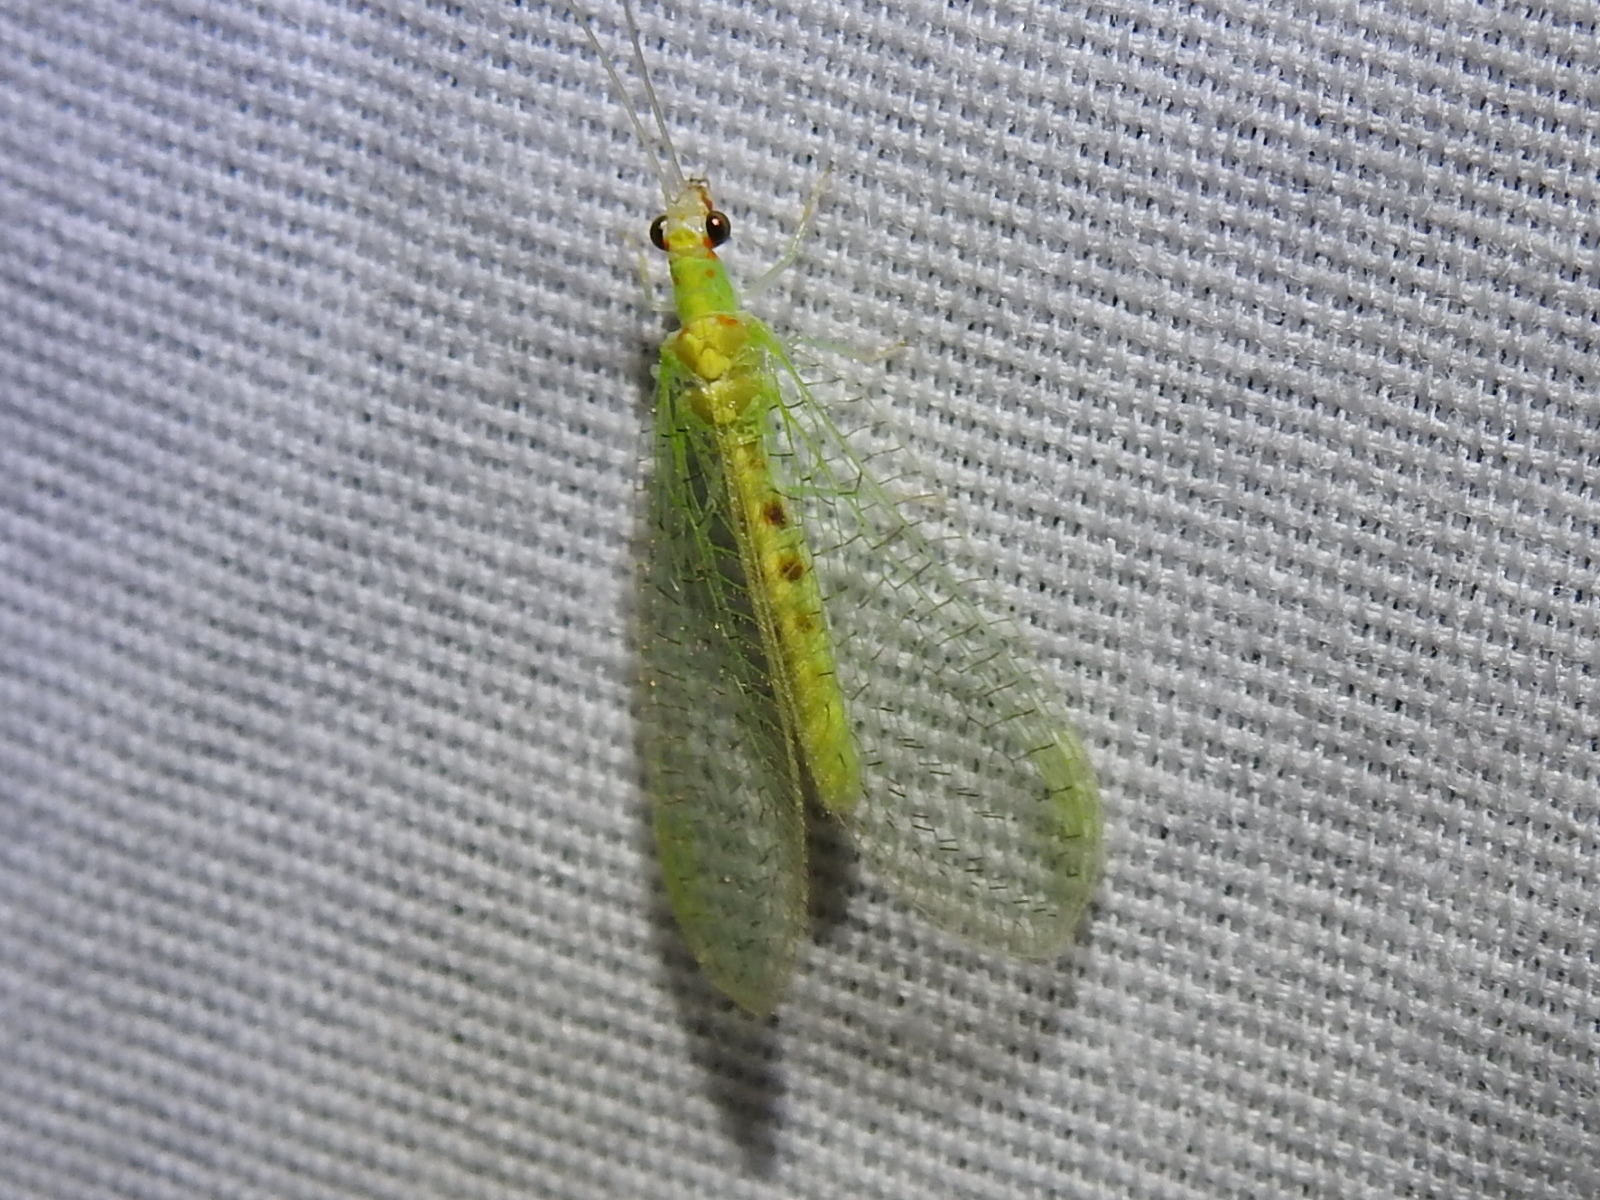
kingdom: Animalia
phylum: Arthropoda
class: Insecta
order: Neuroptera
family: Chrysopidae
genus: Chrysopa
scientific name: Chrysopa quadripunctata
